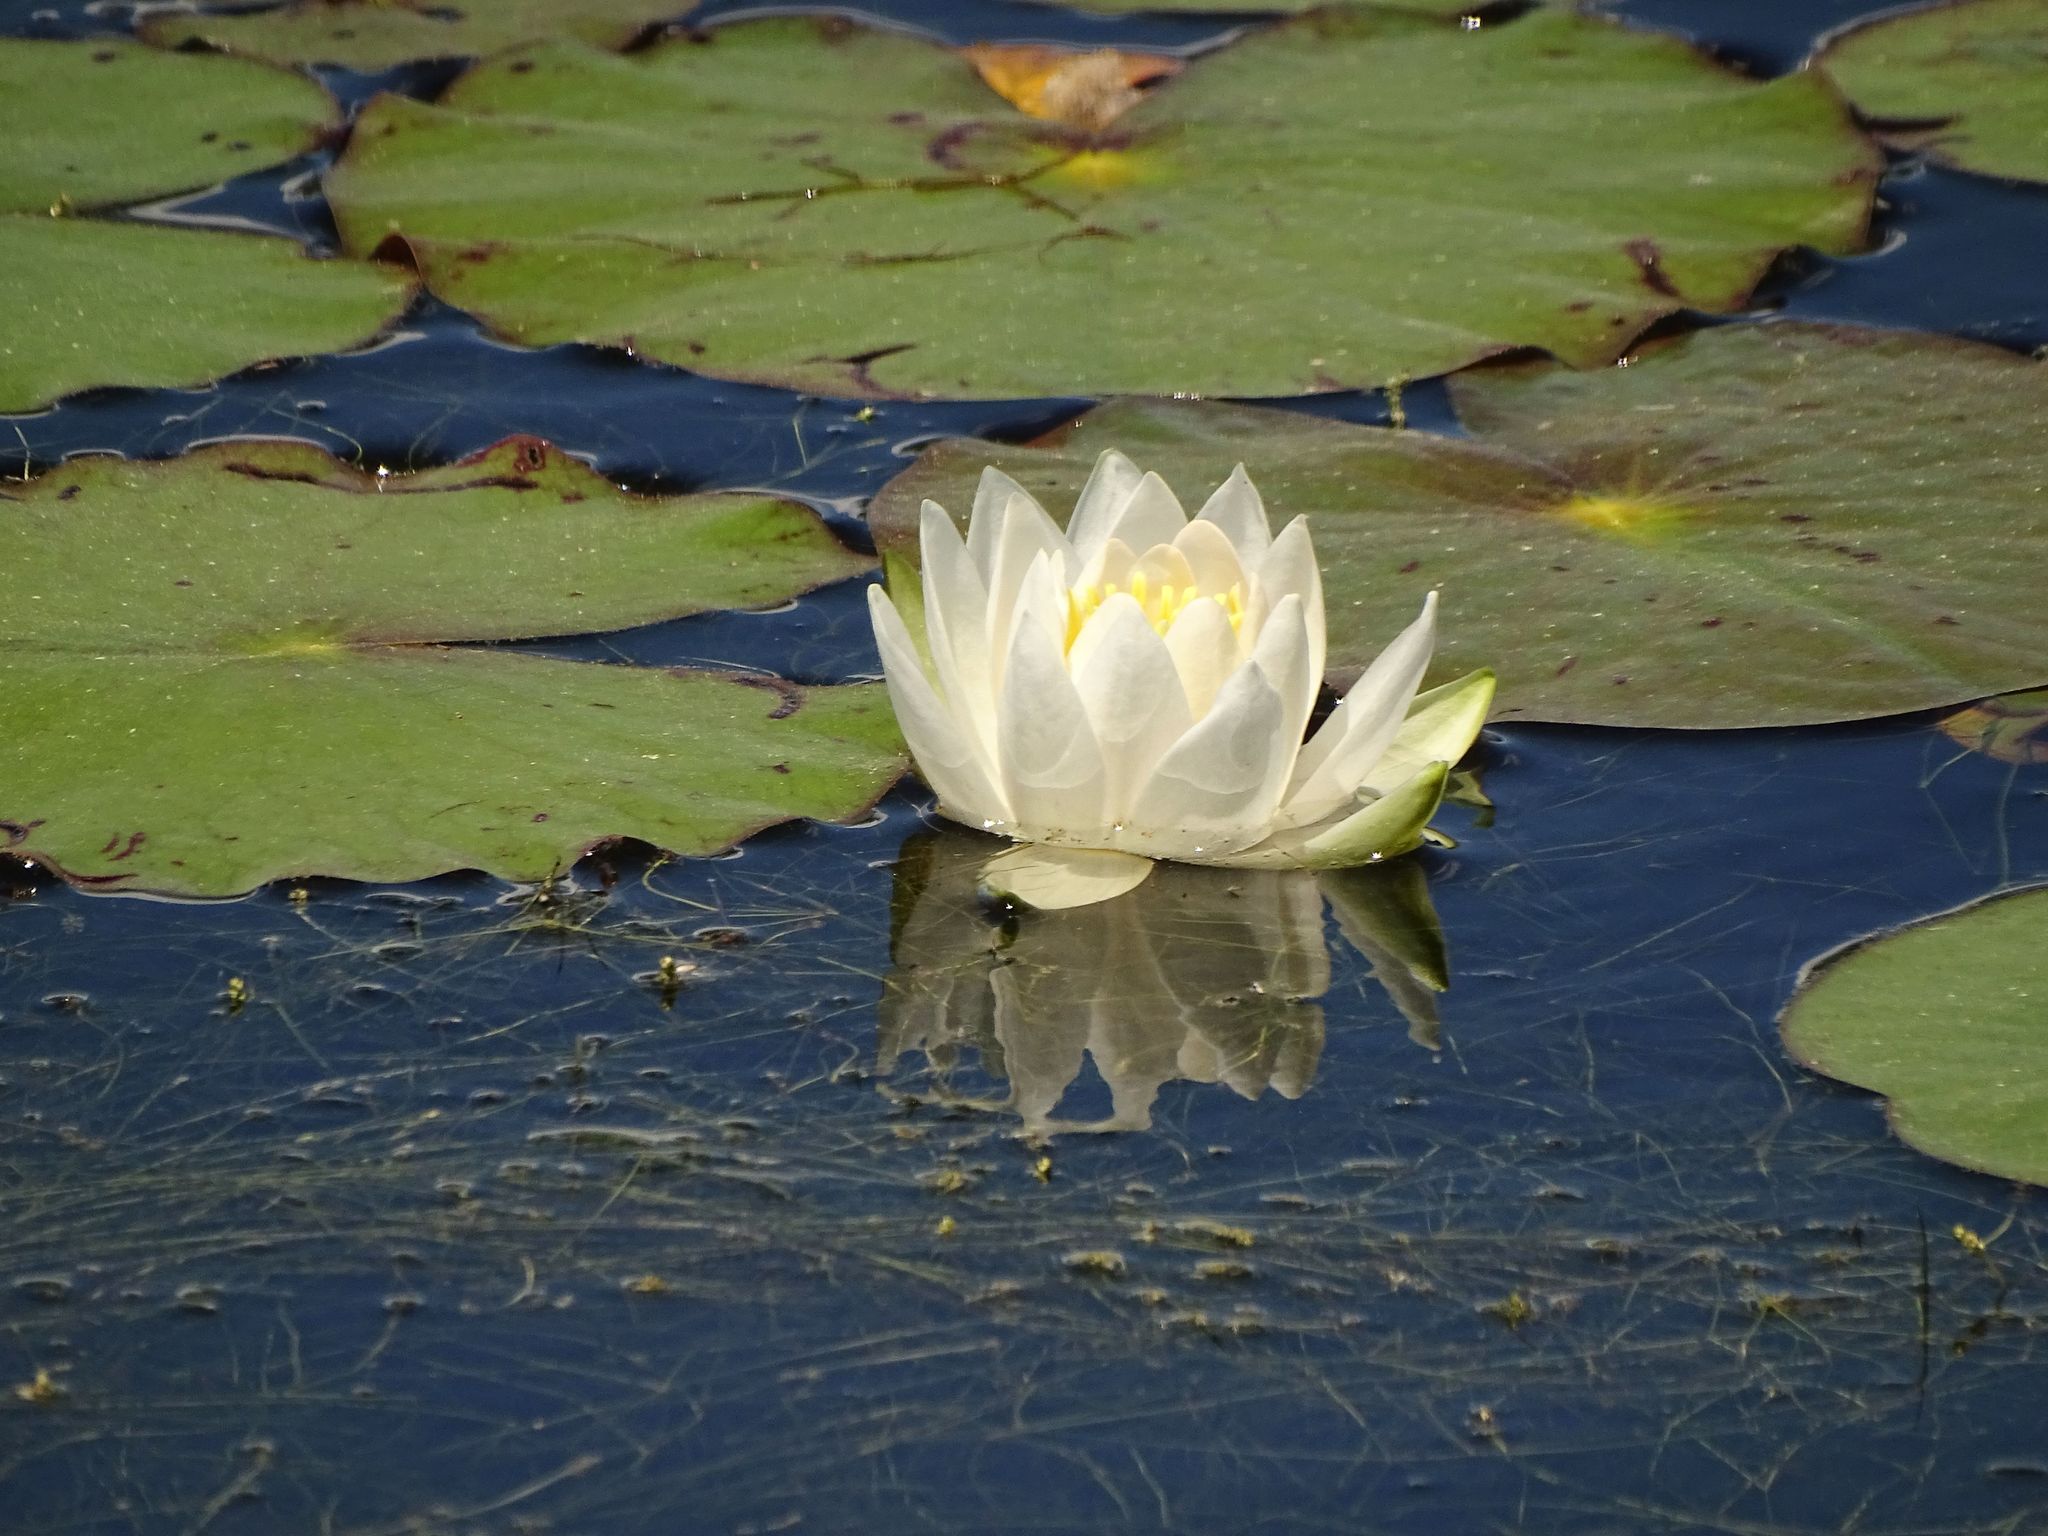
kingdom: Plantae
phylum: Tracheophyta
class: Magnoliopsida
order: Nymphaeales
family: Nymphaeaceae
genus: Nymphaea
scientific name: Nymphaea odorata
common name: Fragrant water-lily
